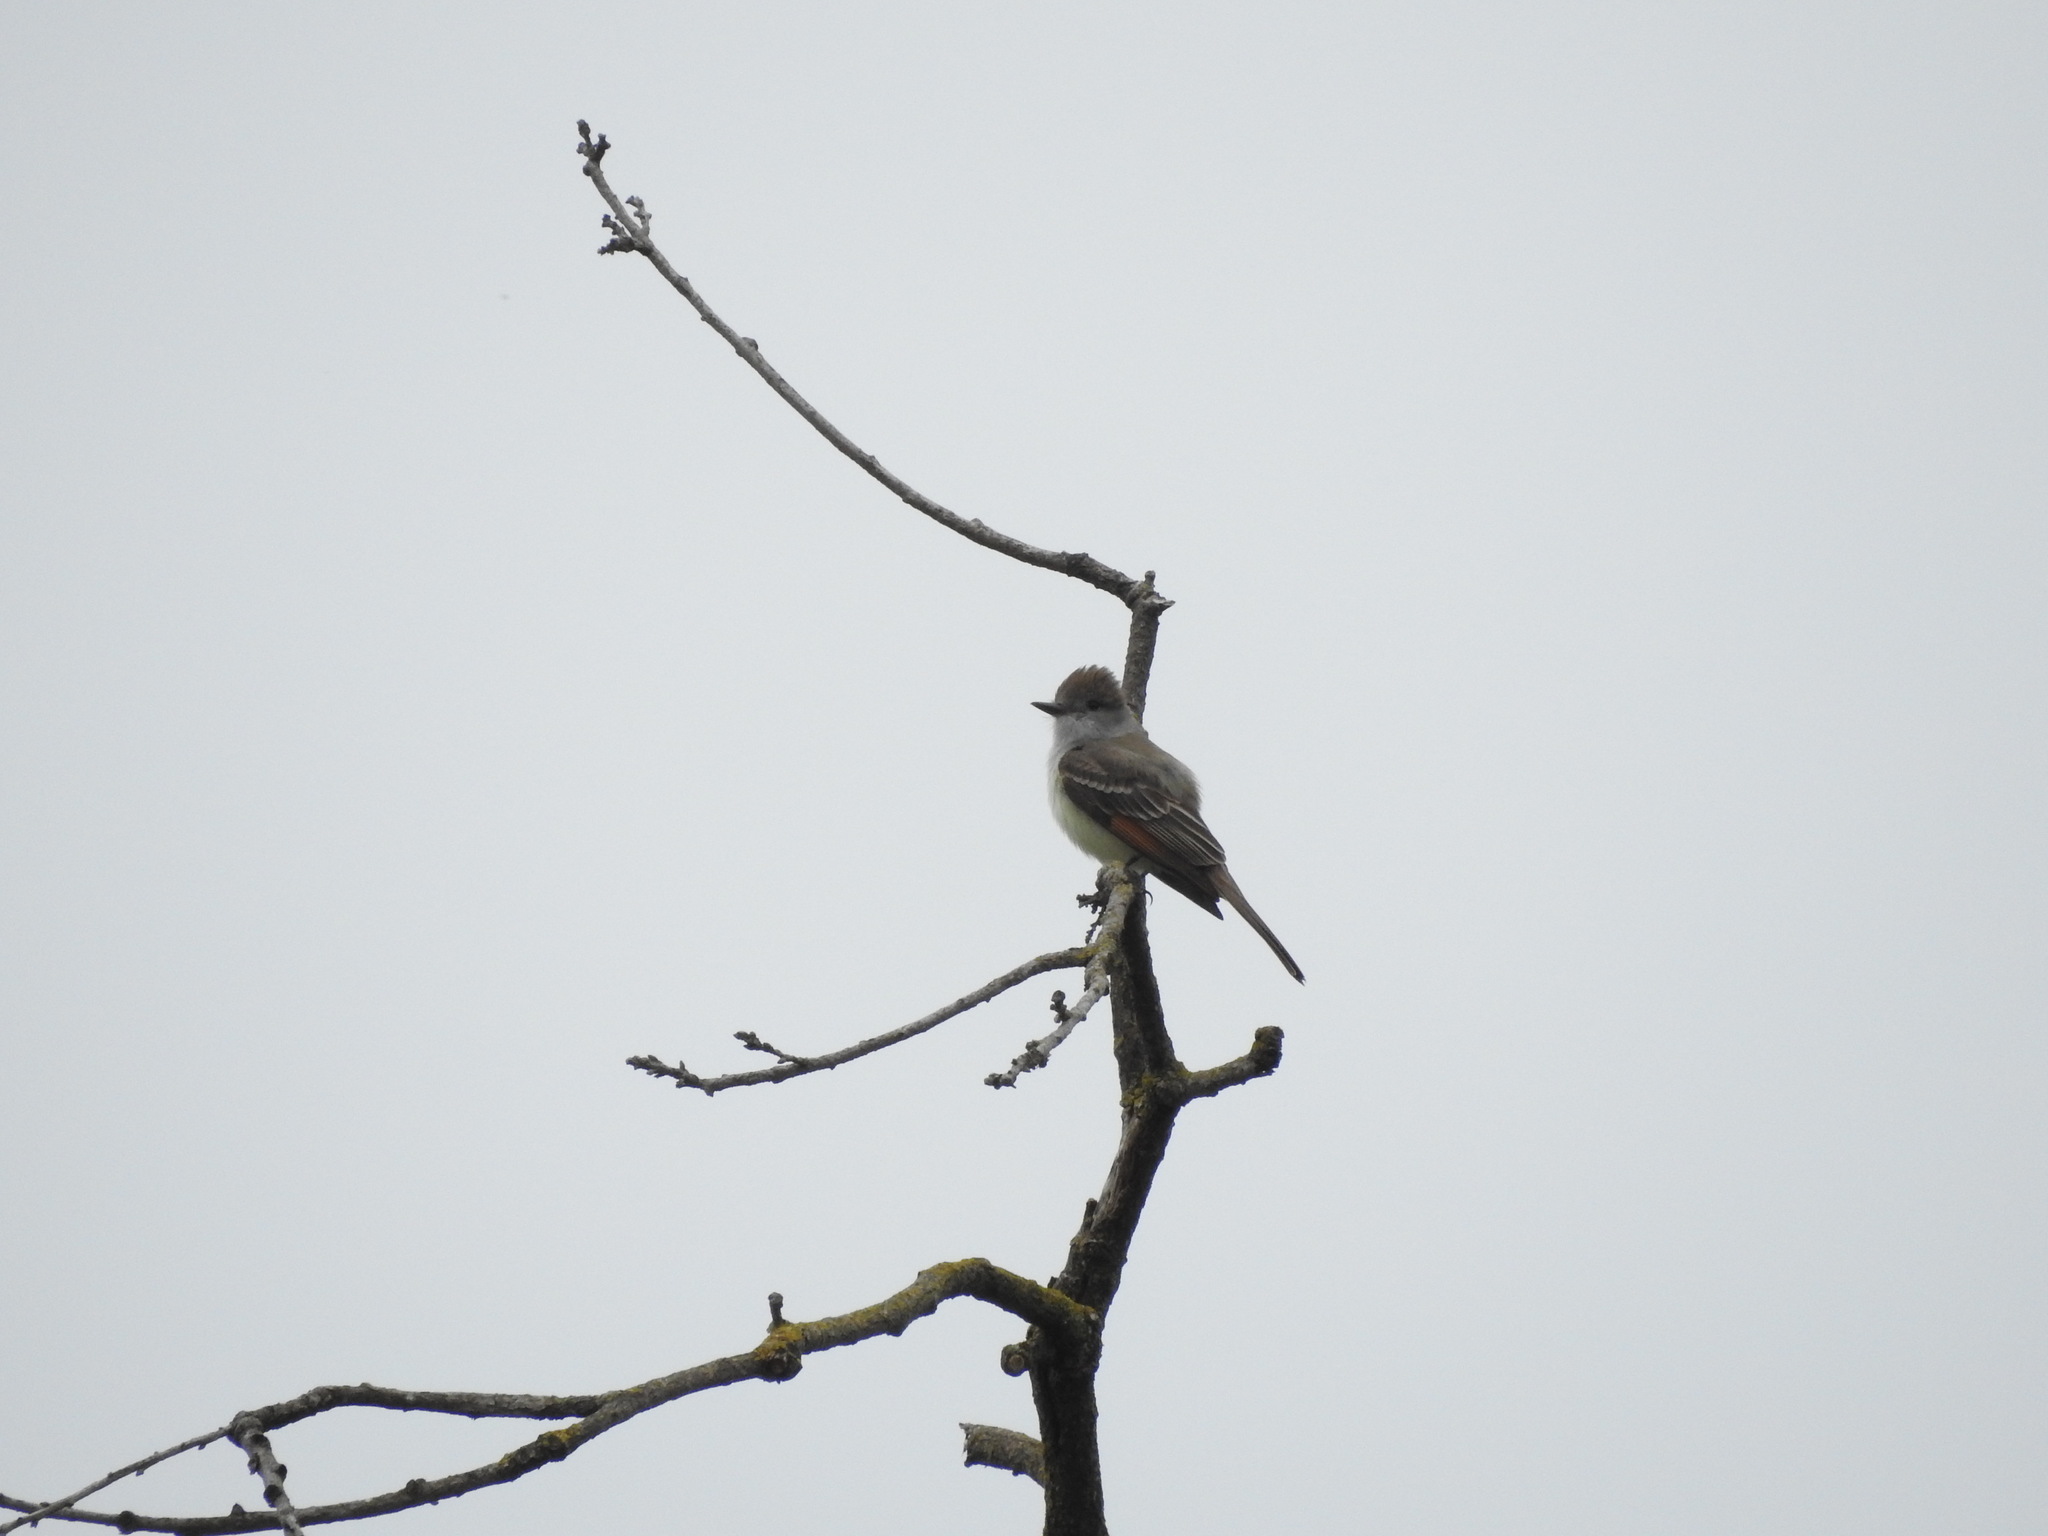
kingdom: Animalia
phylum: Chordata
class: Aves
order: Passeriformes
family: Tyrannidae
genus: Myiarchus
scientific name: Myiarchus cinerascens
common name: Ash-throated flycatcher
